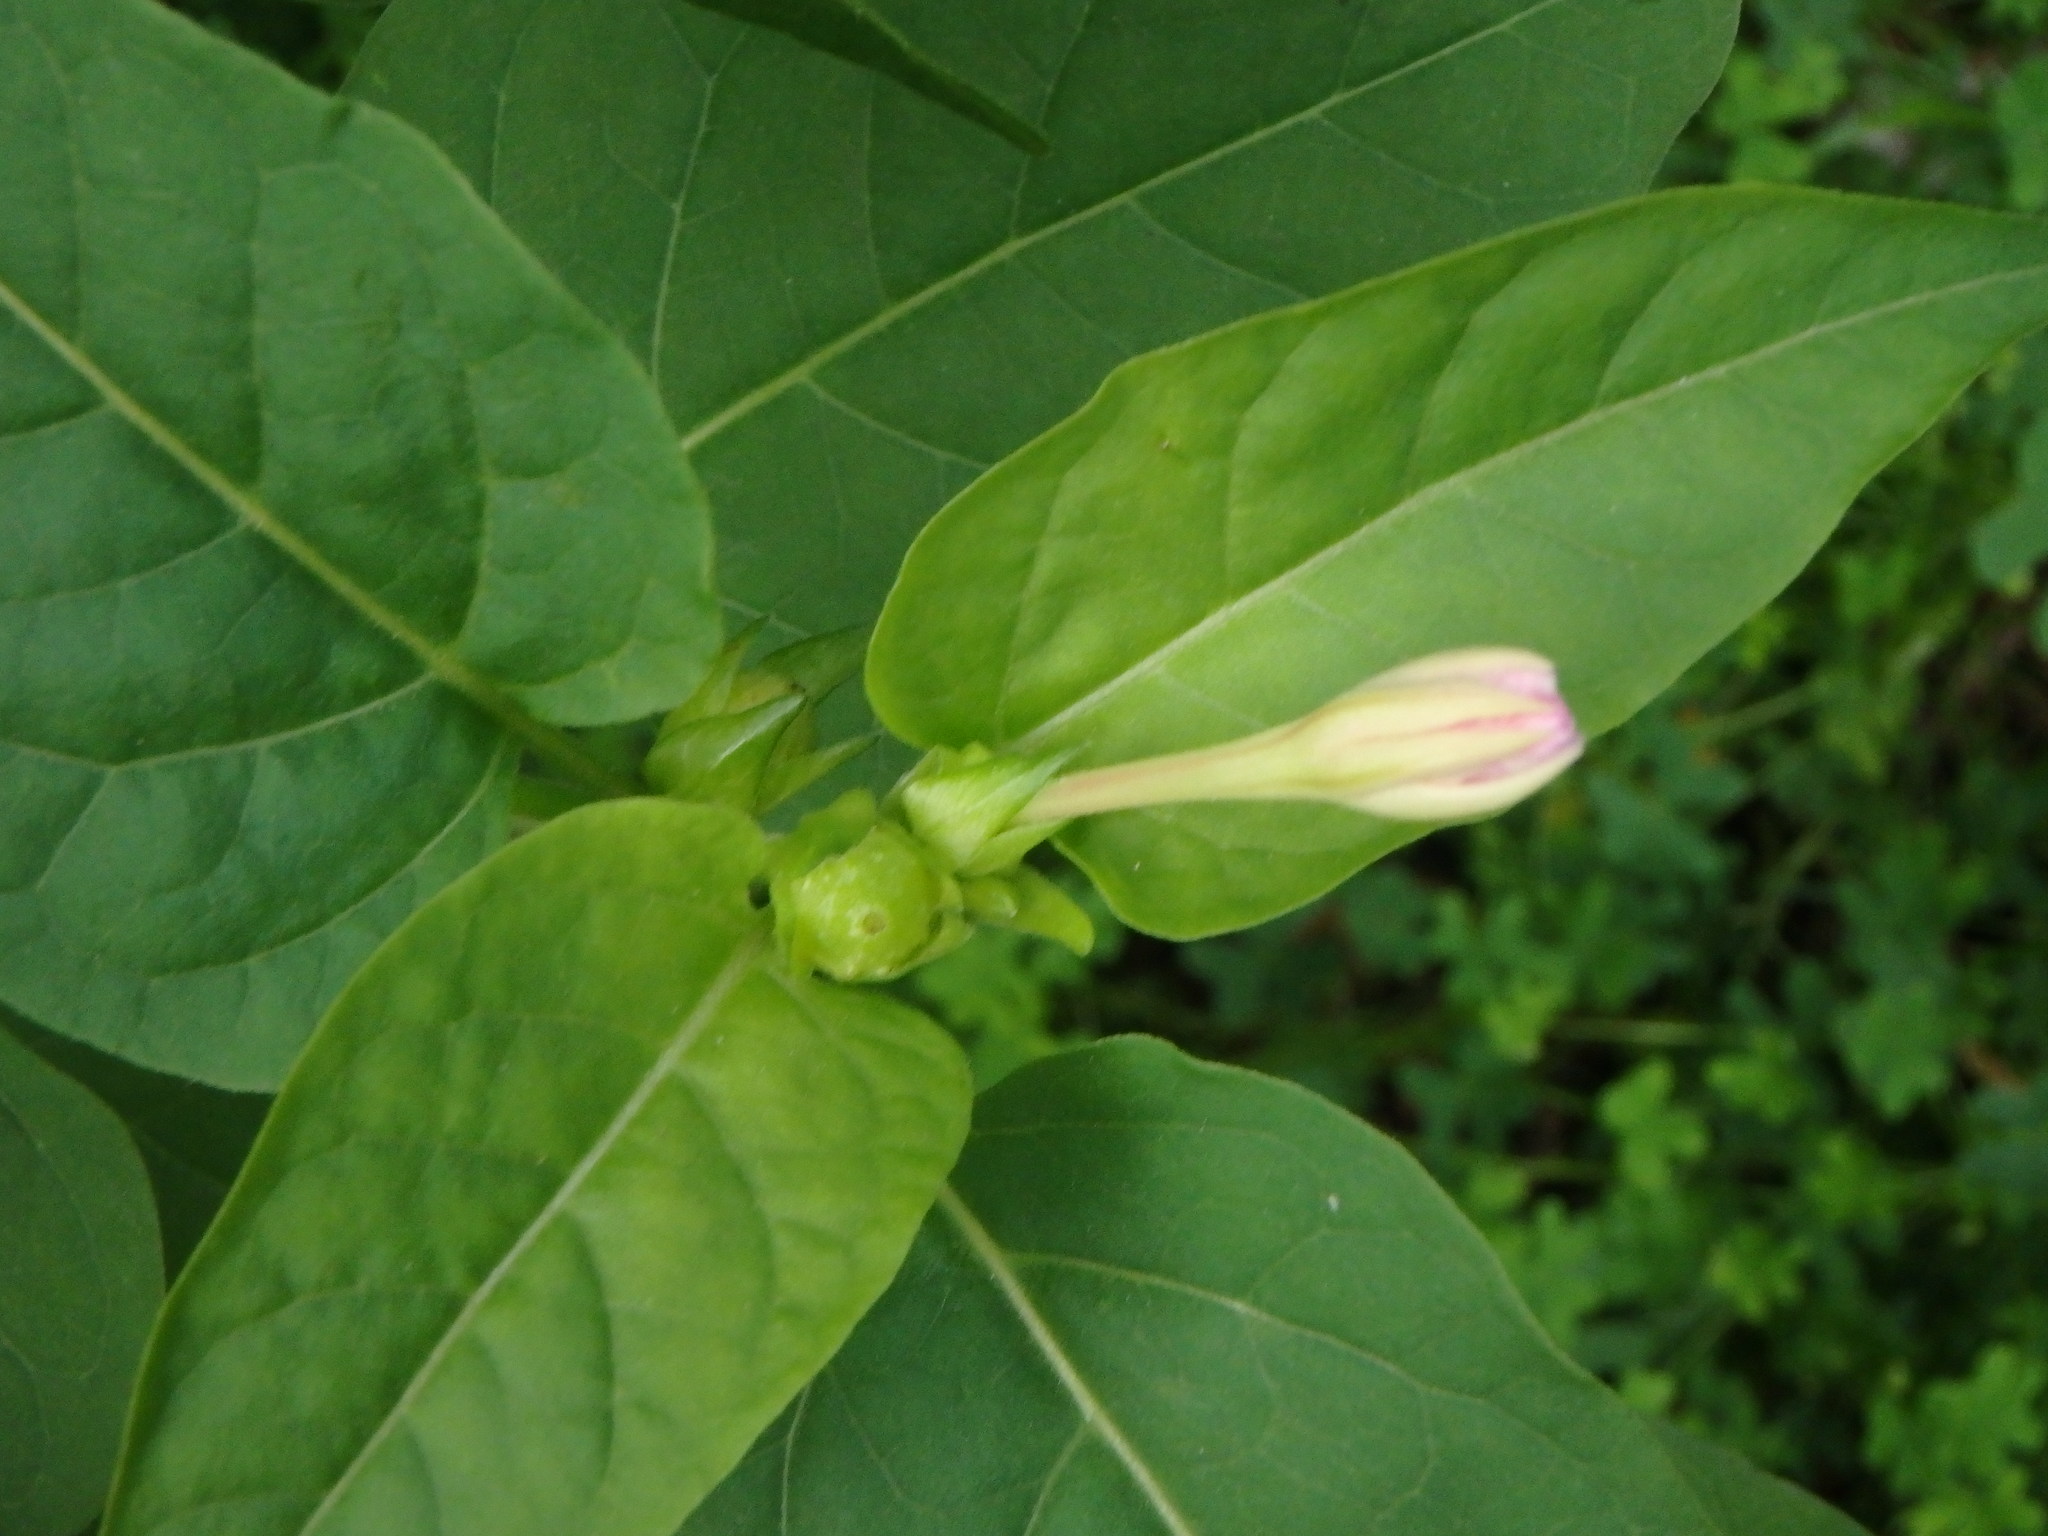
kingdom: Plantae
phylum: Tracheophyta
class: Magnoliopsida
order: Caryophyllales
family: Nyctaginaceae
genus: Mirabilis
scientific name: Mirabilis jalapa
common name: Marvel-of-peru
